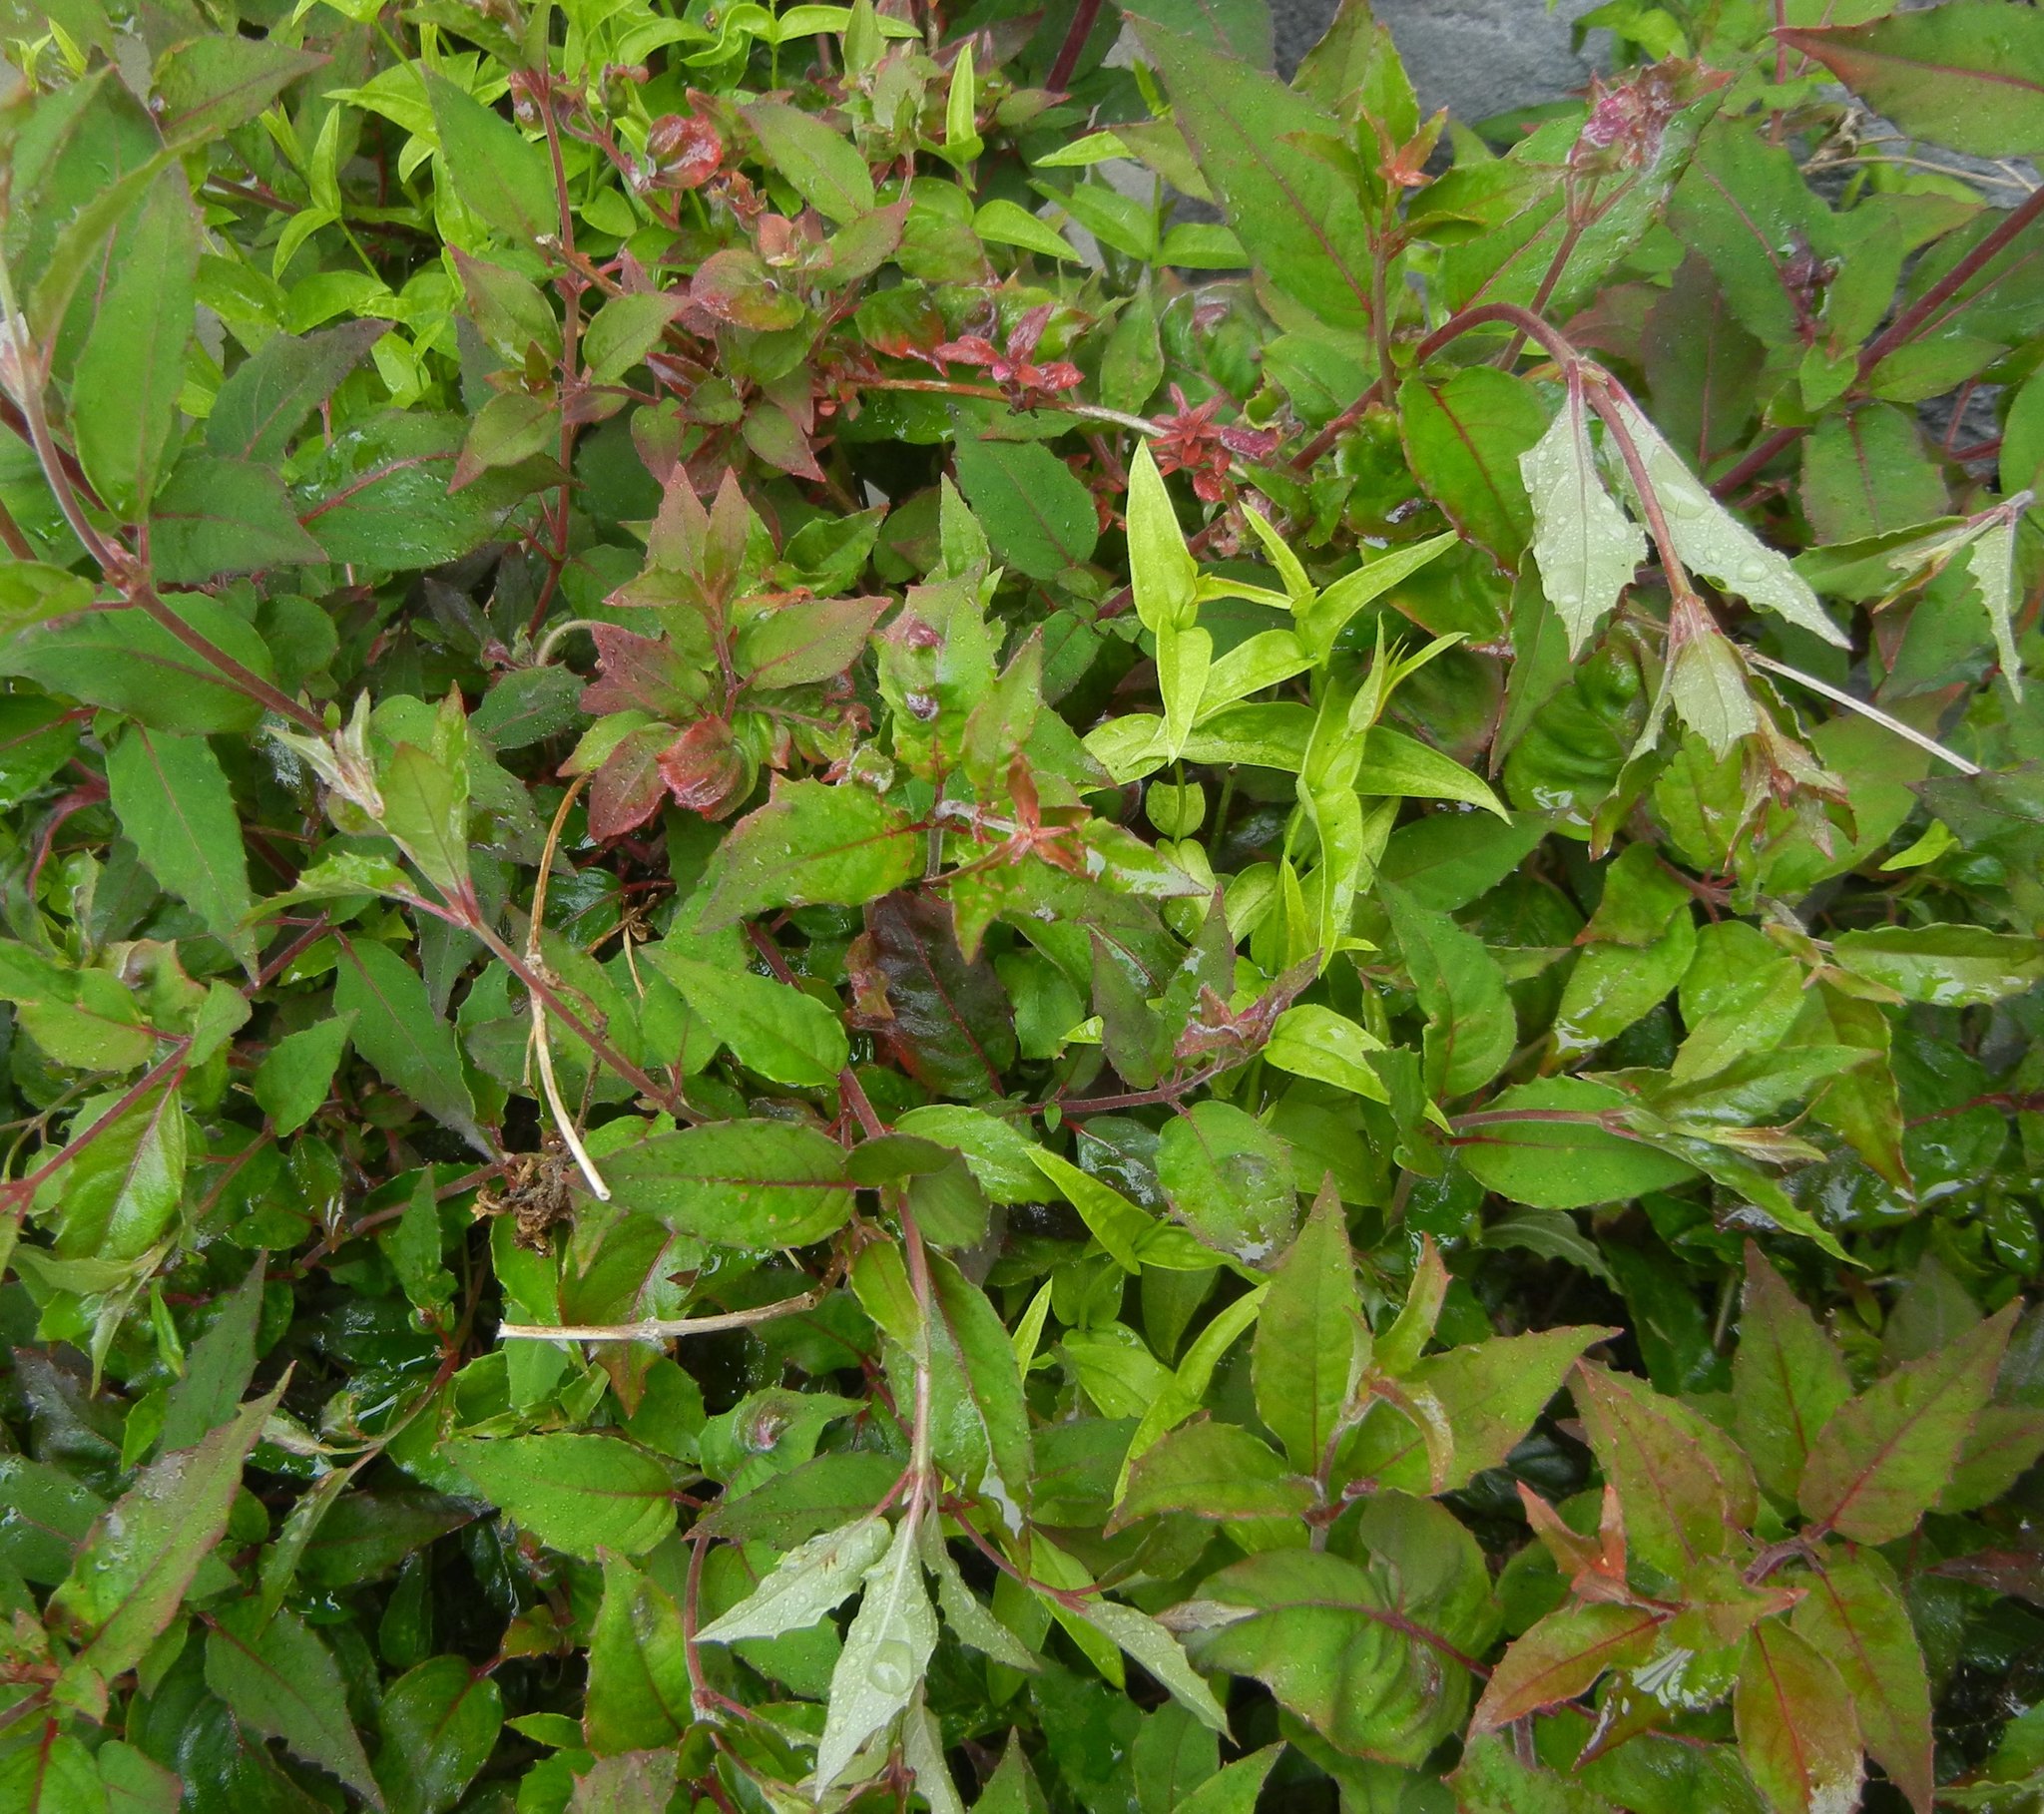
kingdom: Plantae
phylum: Tracheophyta
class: Magnoliopsida
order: Myrtales
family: Onagraceae
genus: Fuchsia
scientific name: Fuchsia magellanica
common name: Hardy fuchsia
